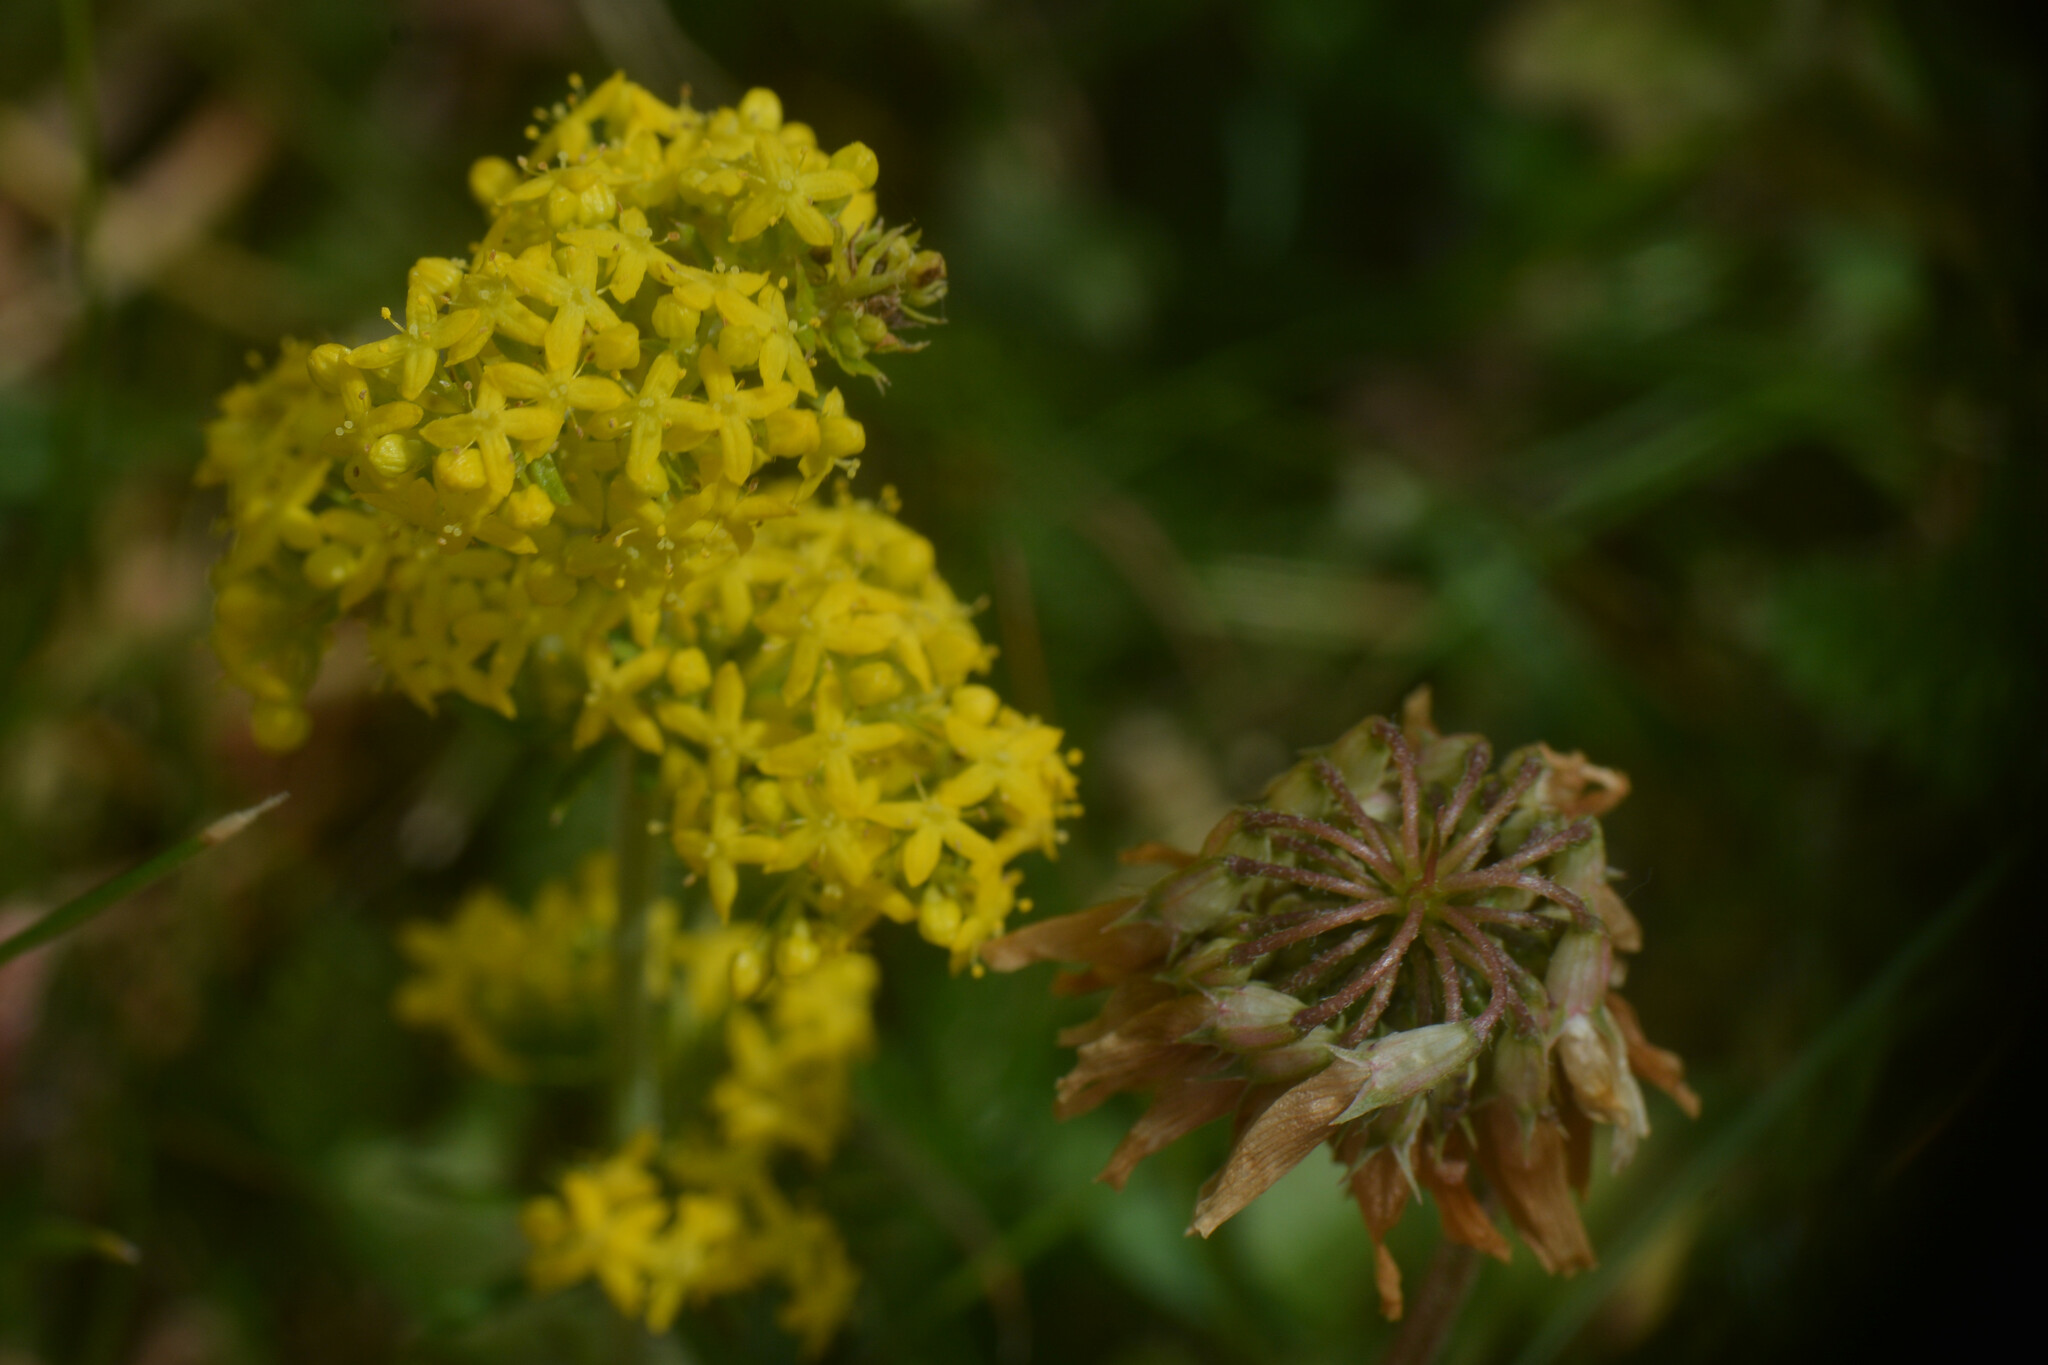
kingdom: Plantae
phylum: Tracheophyta
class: Magnoliopsida
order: Gentianales
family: Rubiaceae
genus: Galium
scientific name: Galium verum
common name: Lady's bedstraw
